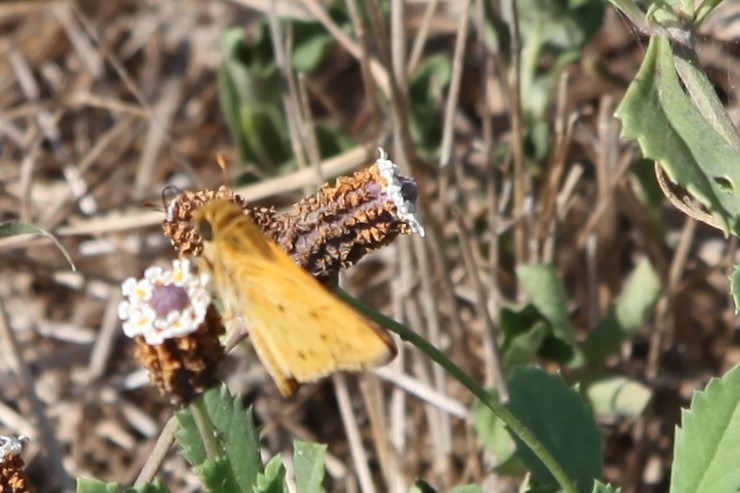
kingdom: Animalia
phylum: Arthropoda
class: Insecta
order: Lepidoptera
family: Hesperiidae
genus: Hylephila
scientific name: Hylephila phyleus
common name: Fiery skipper
